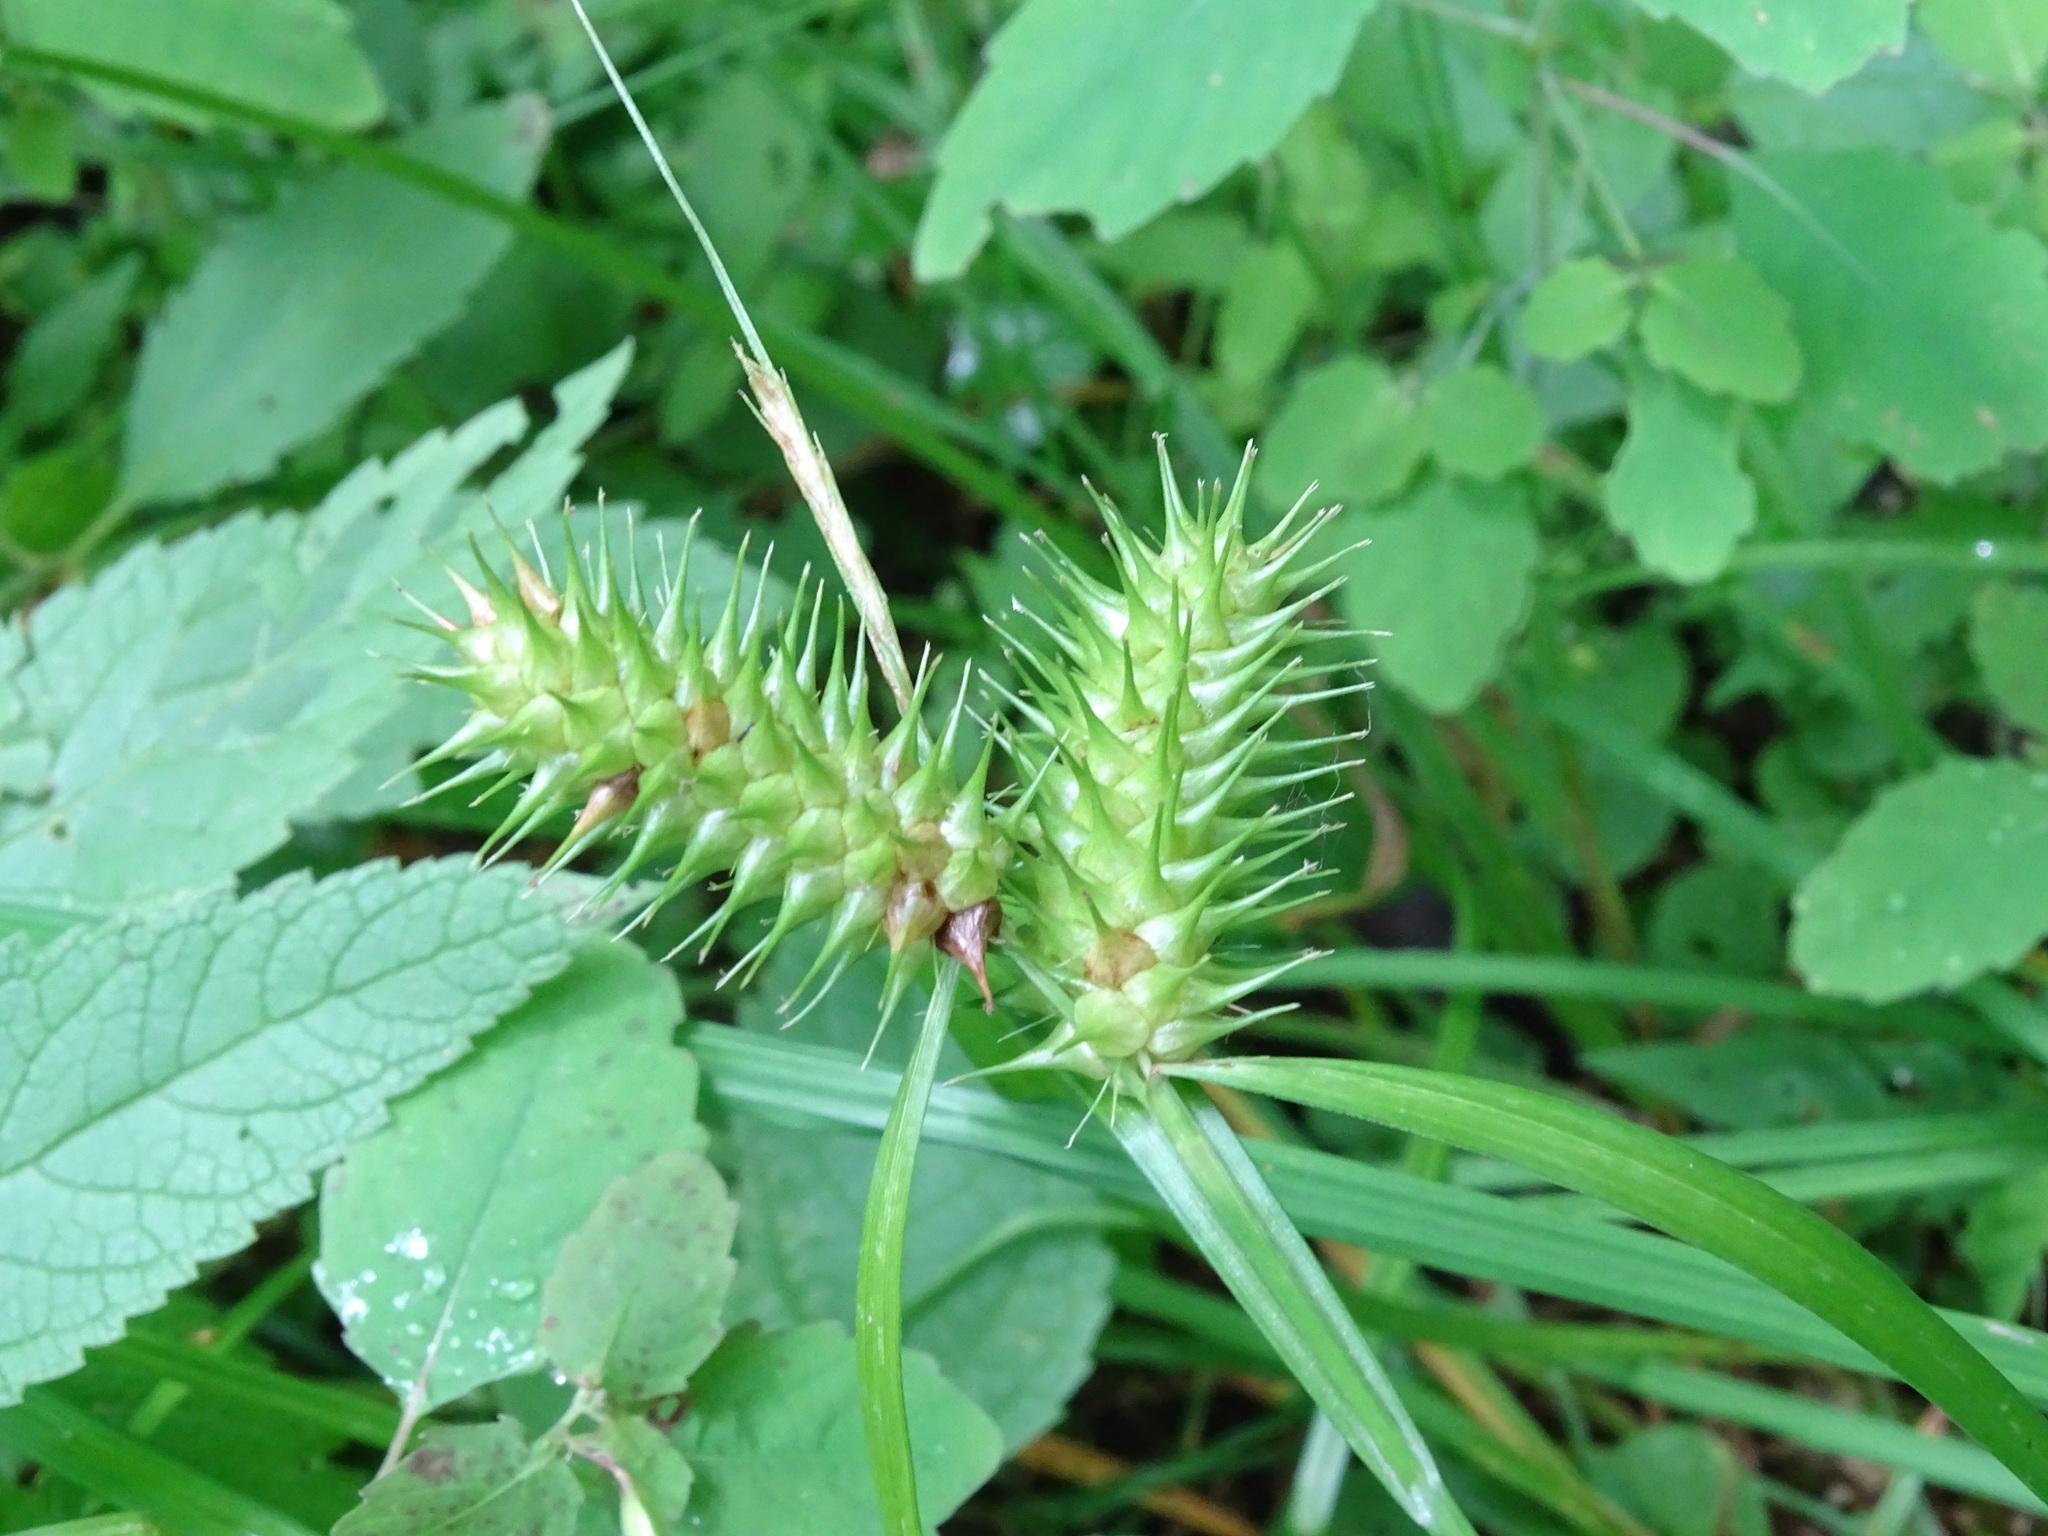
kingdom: Plantae
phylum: Tracheophyta
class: Liliopsida
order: Poales
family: Cyperaceae
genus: Carex
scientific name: Carex lurida
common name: Sallow sedge
